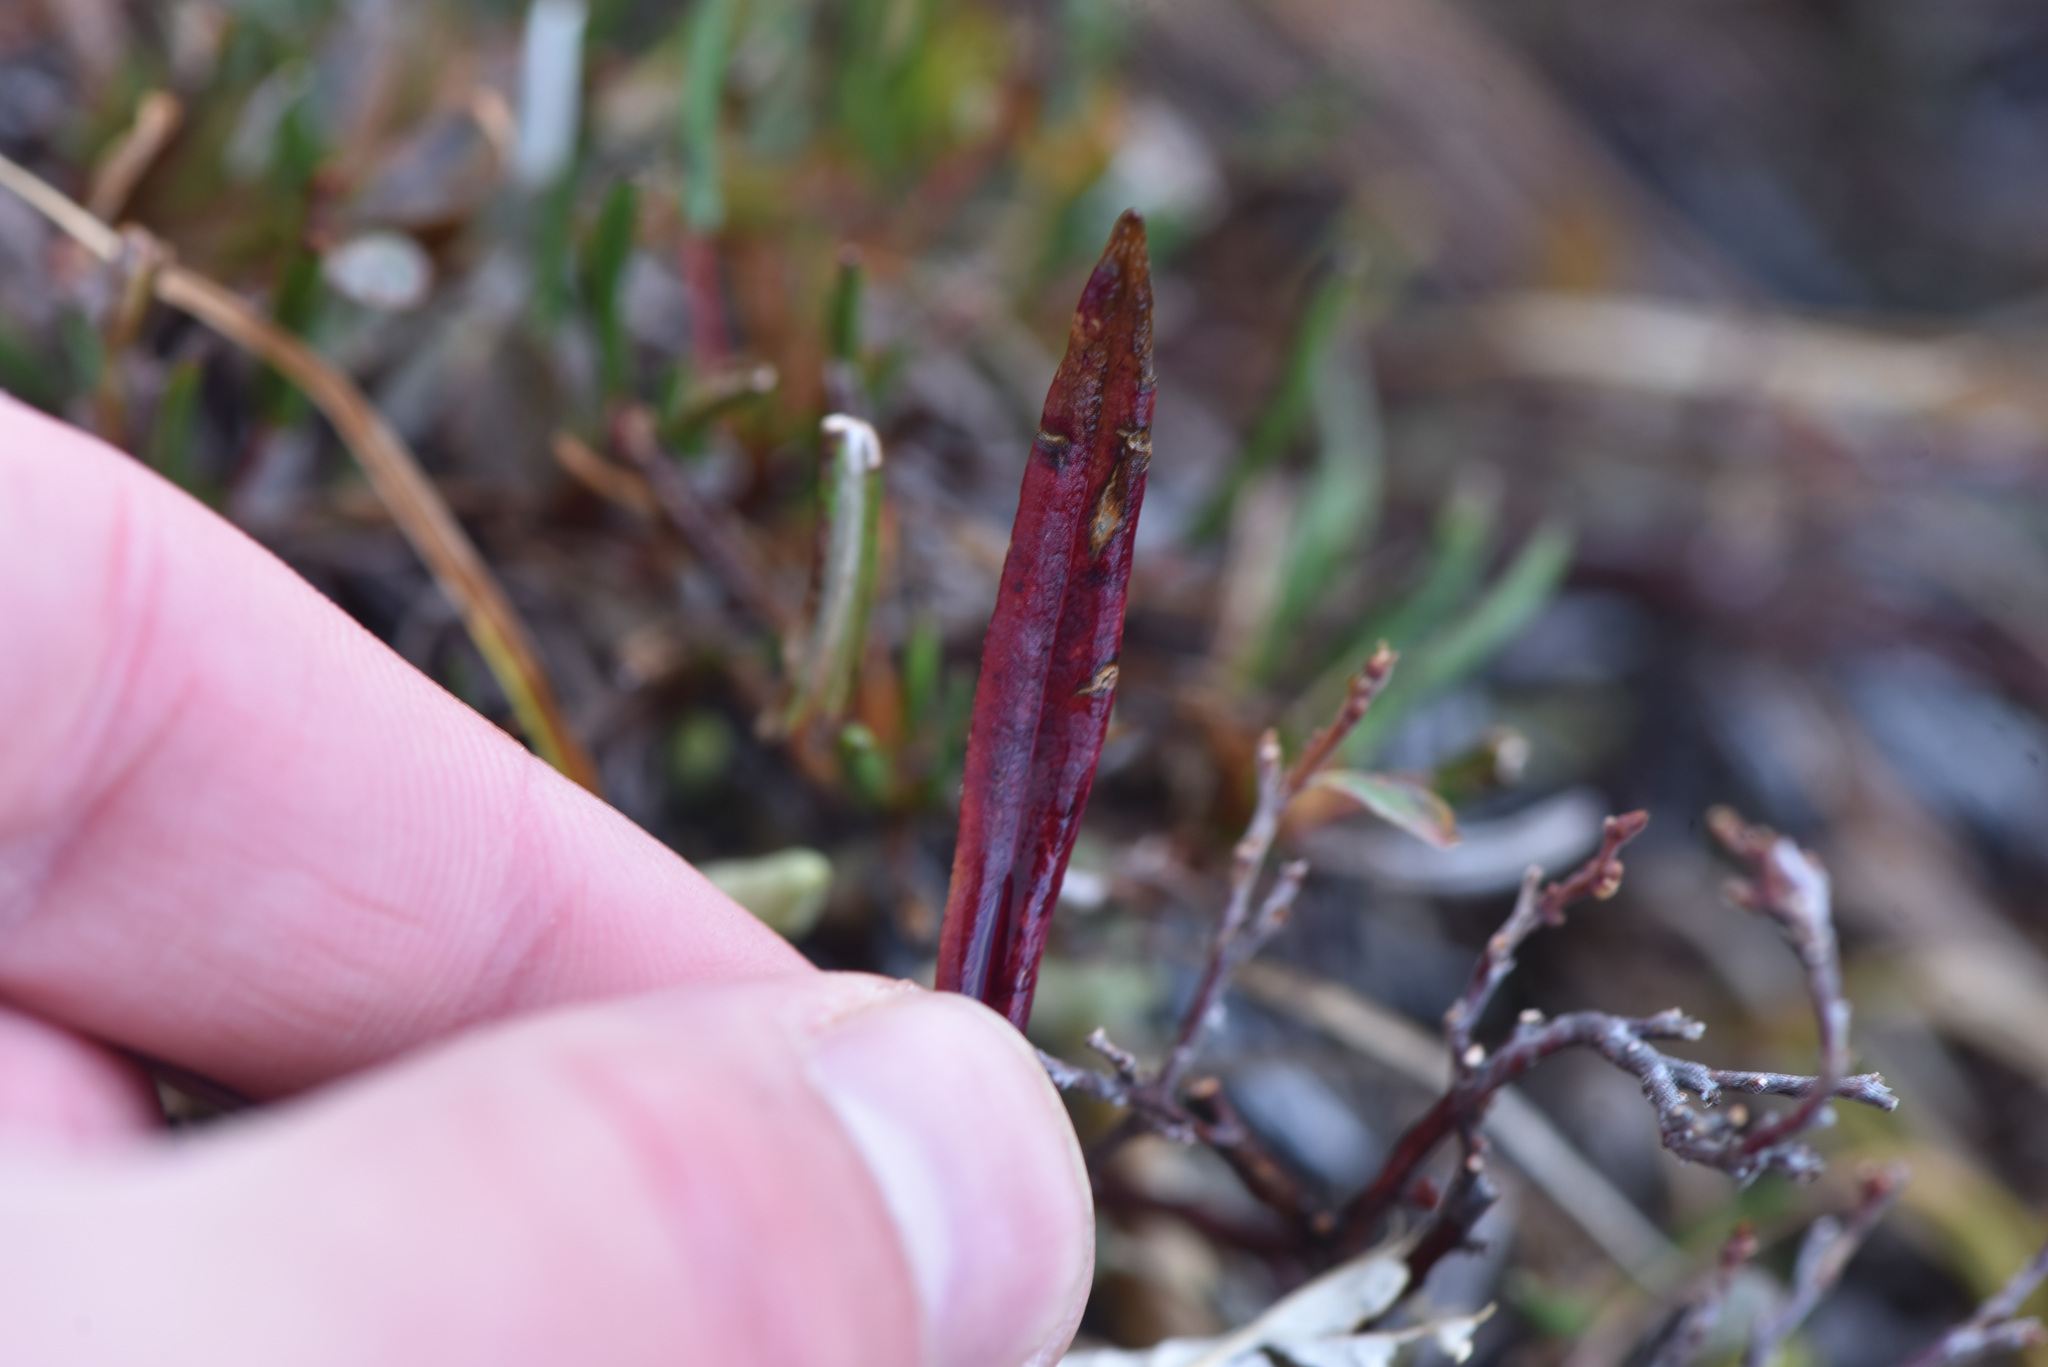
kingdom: Plantae
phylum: Tracheophyta
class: Magnoliopsida
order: Caryophyllales
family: Polygonaceae
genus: Bistorta
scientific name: Bistorta vivipara
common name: Alpine bistort
